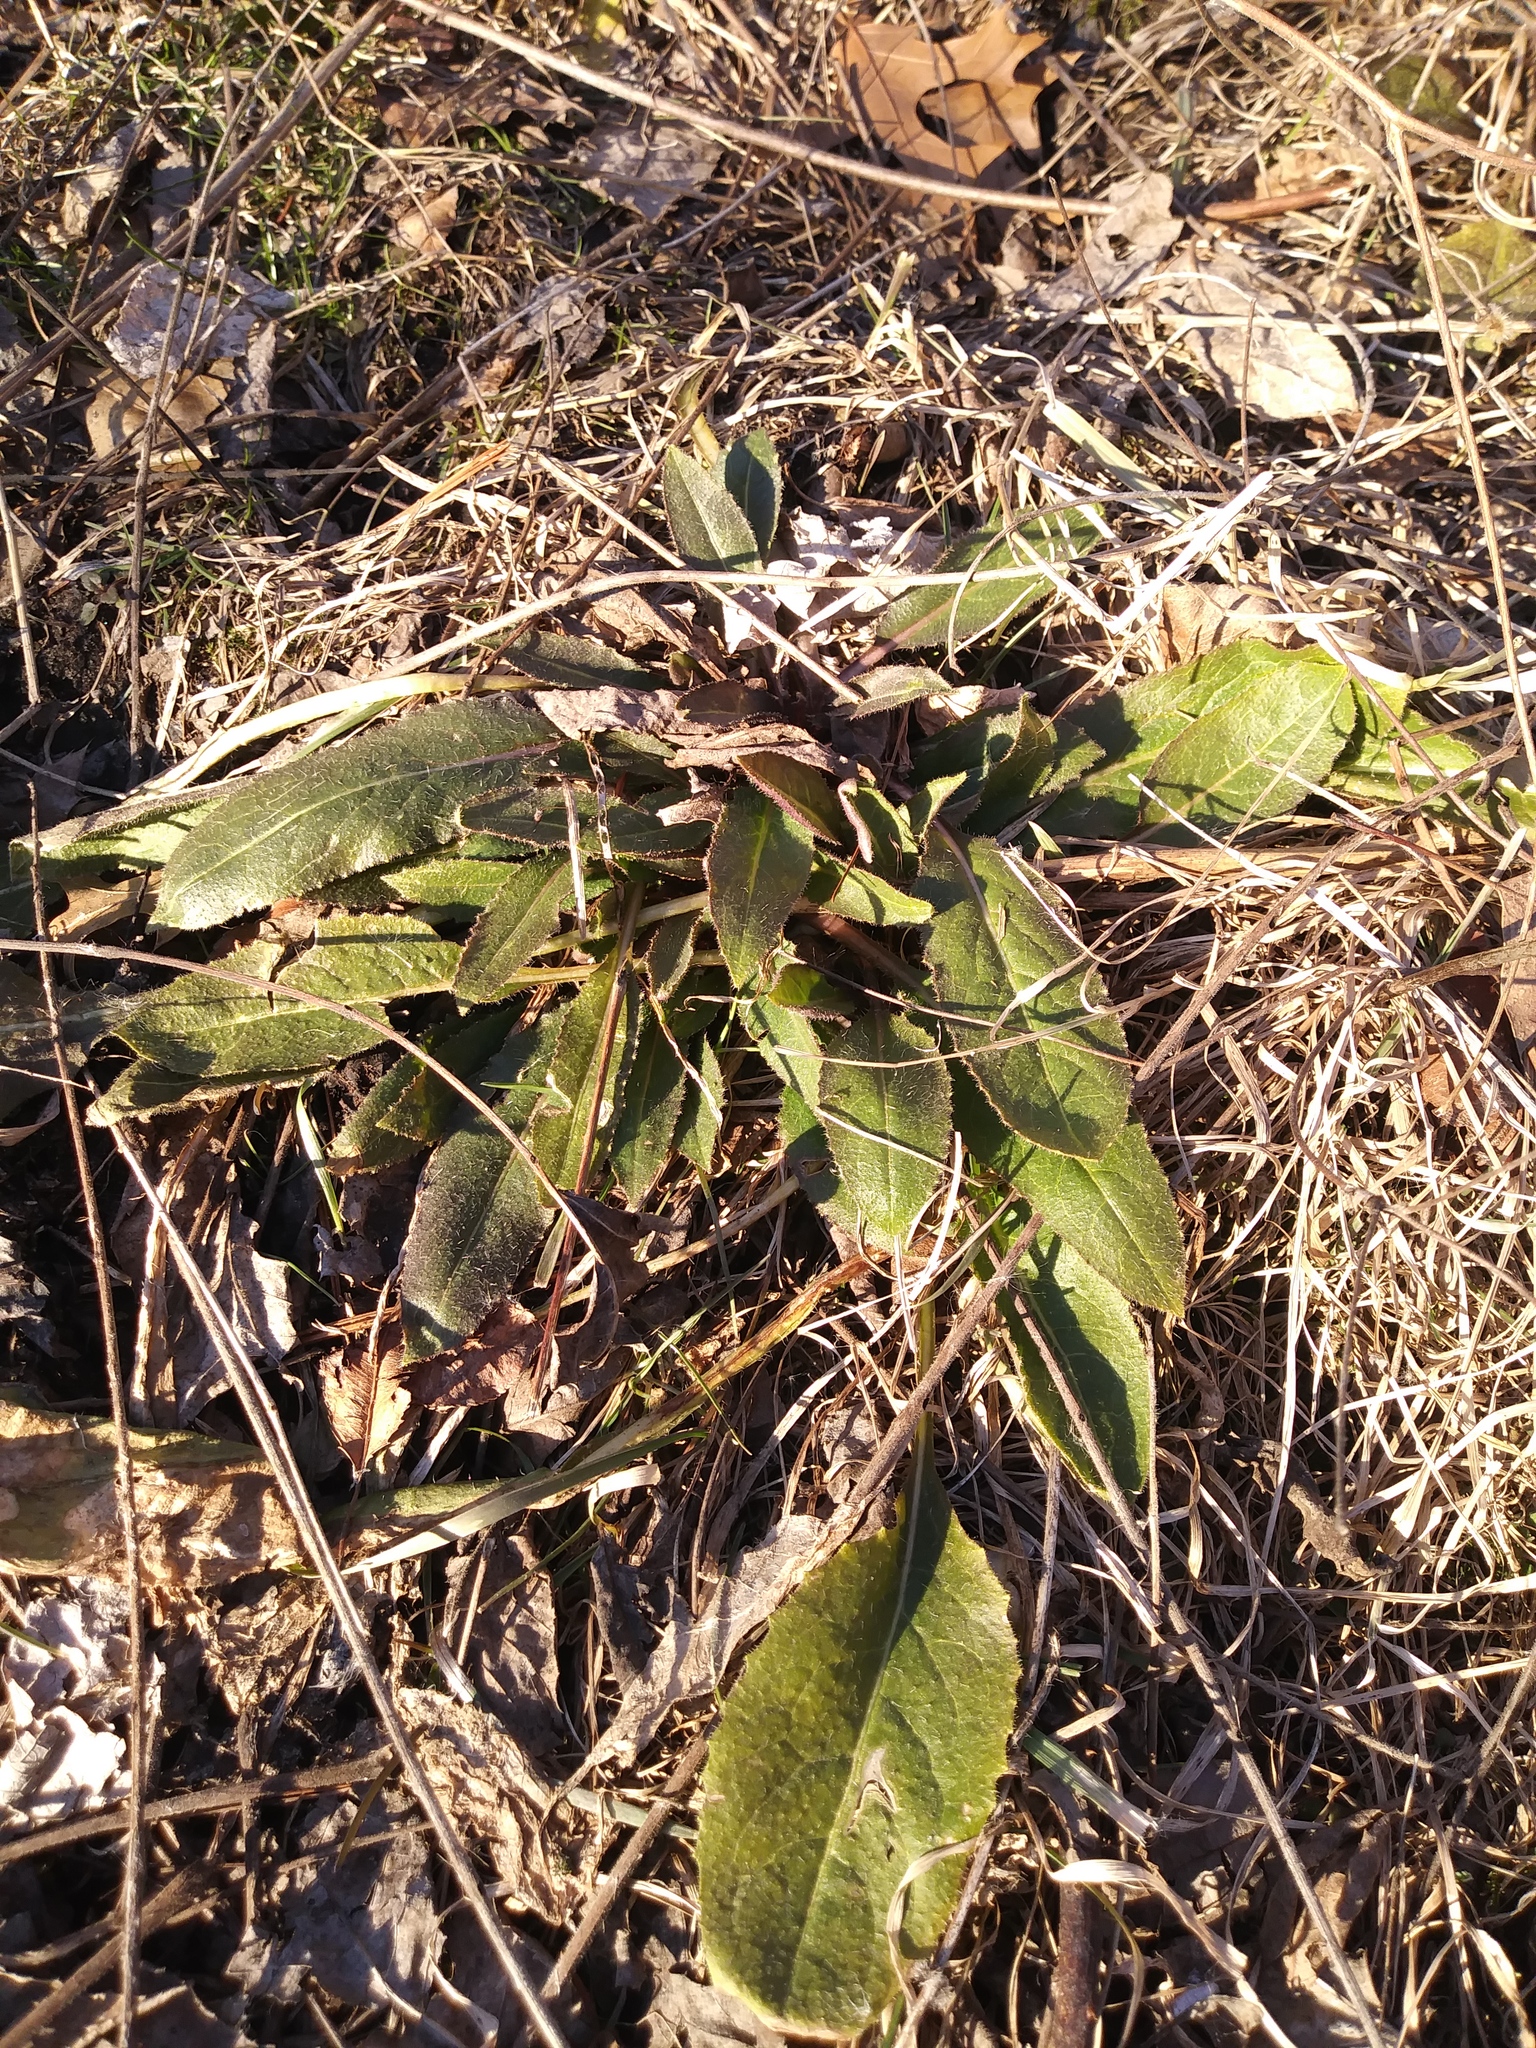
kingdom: Plantae
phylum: Tracheophyta
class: Magnoliopsida
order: Brassicales
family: Brassicaceae
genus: Hesperis
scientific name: Hesperis matronalis
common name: Dame's-violet
